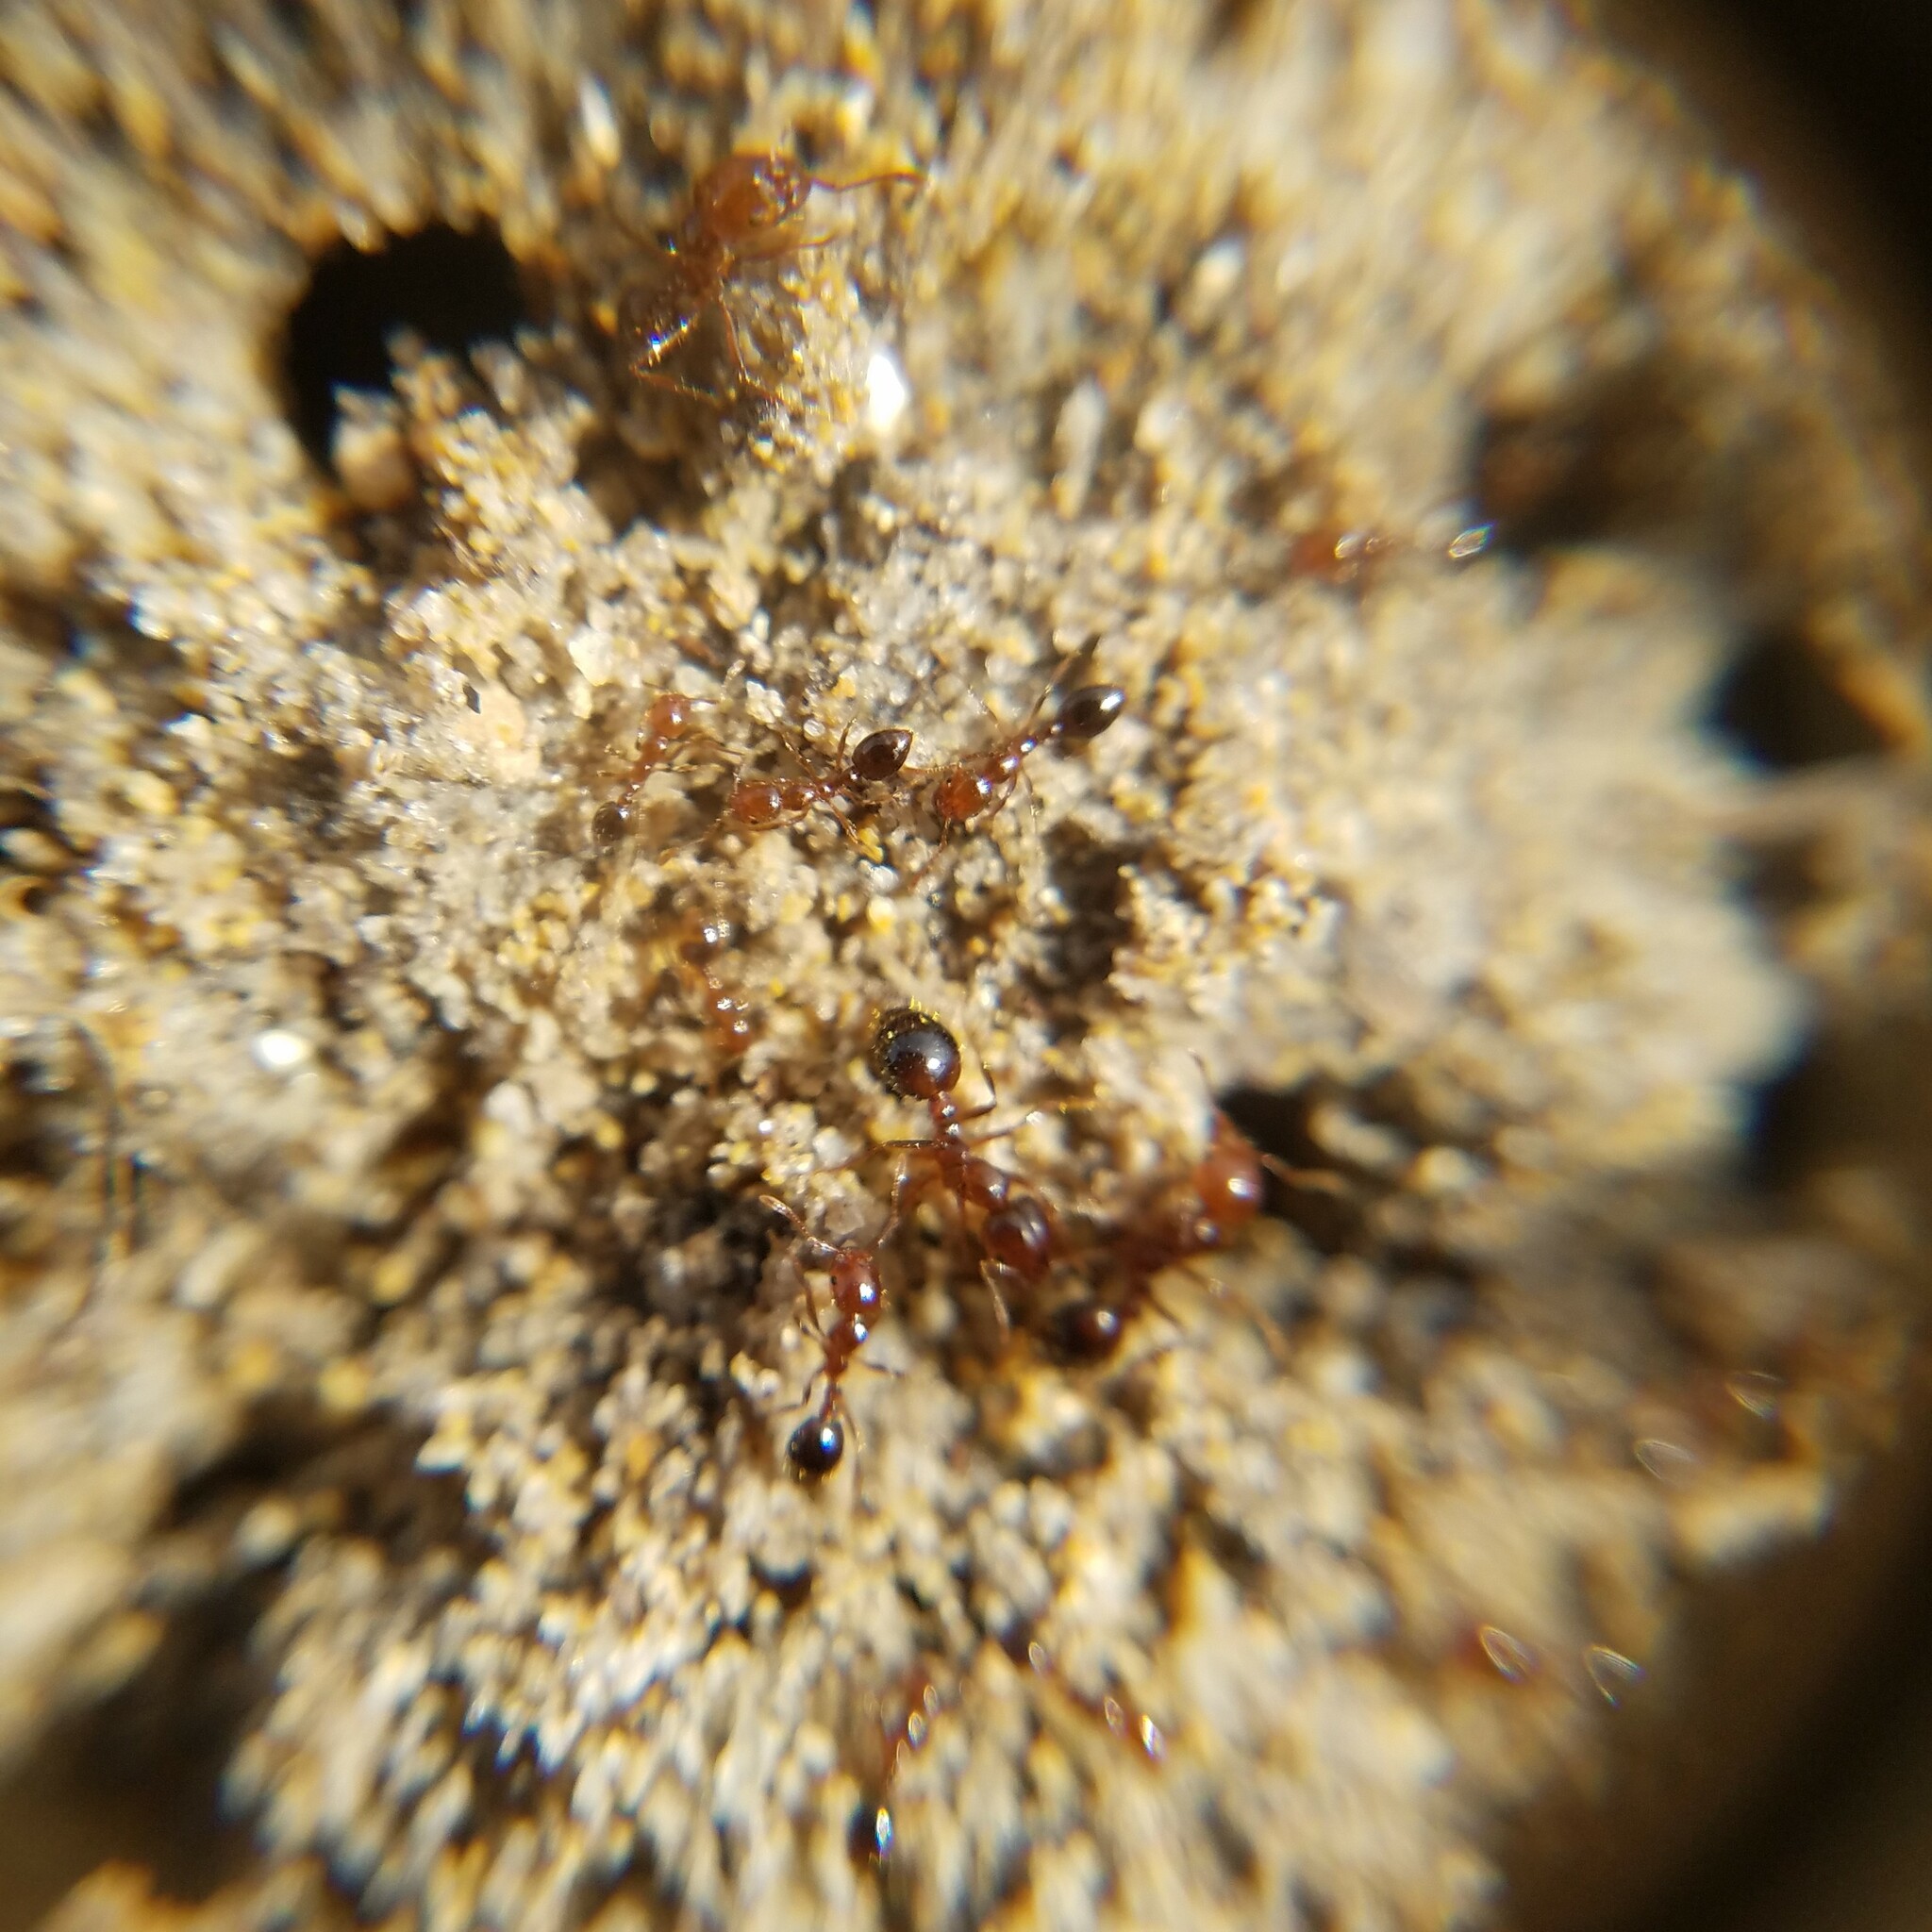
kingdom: Animalia
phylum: Arthropoda
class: Insecta
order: Hymenoptera
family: Formicidae
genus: Solenopsis
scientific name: Solenopsis invicta
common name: Red imported fire ant
